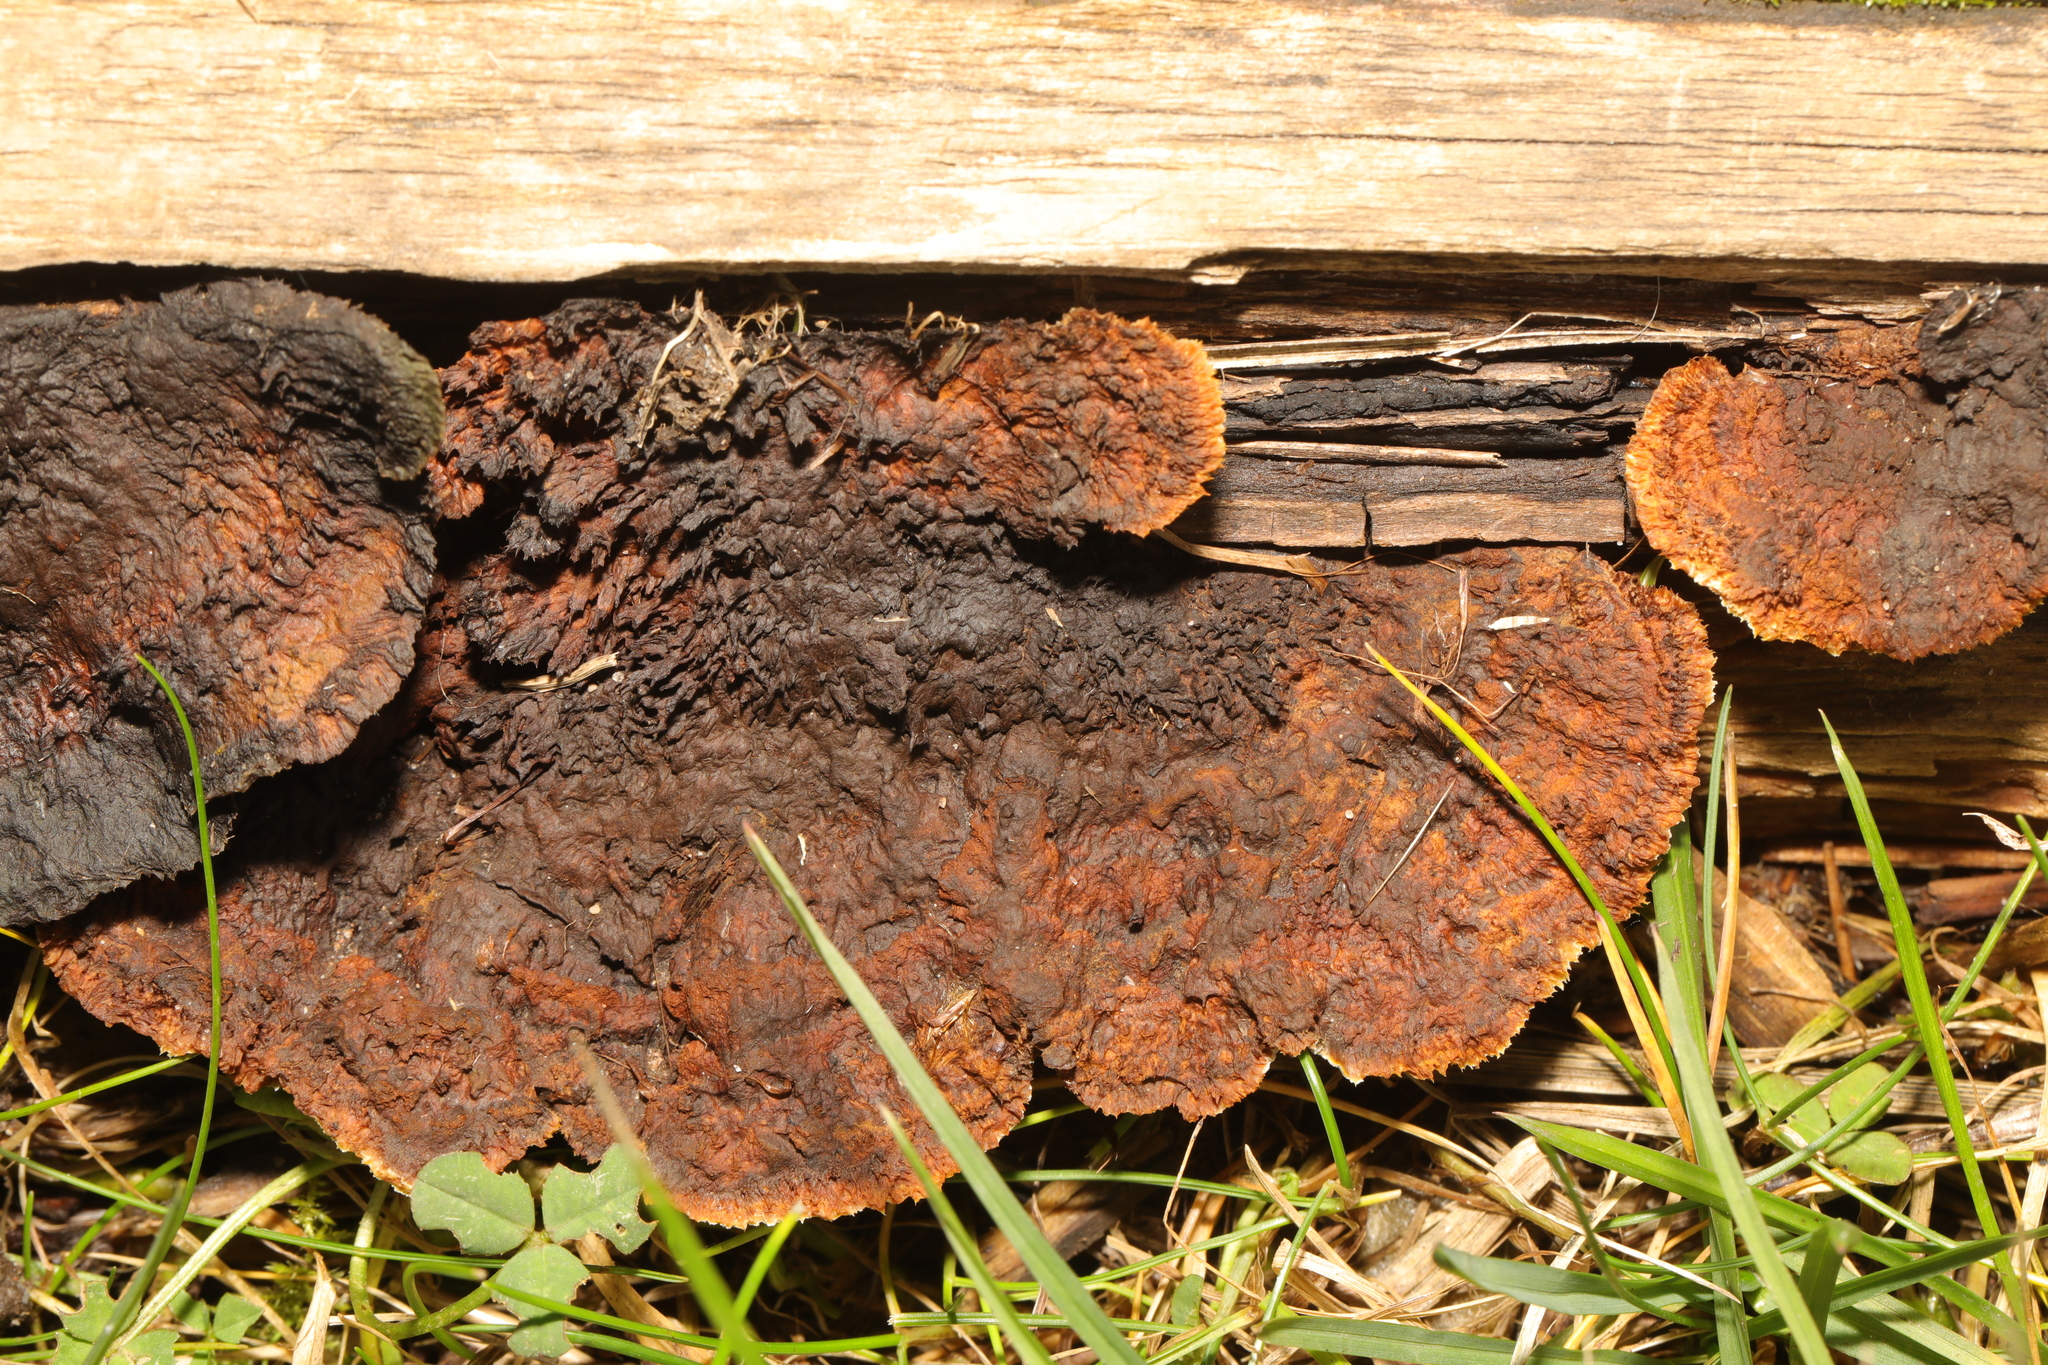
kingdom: Fungi
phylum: Basidiomycota
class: Agaricomycetes
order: Gloeophyllales
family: Gloeophyllaceae
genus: Gloeophyllum
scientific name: Gloeophyllum sepiarium
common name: Conifer mazegill
